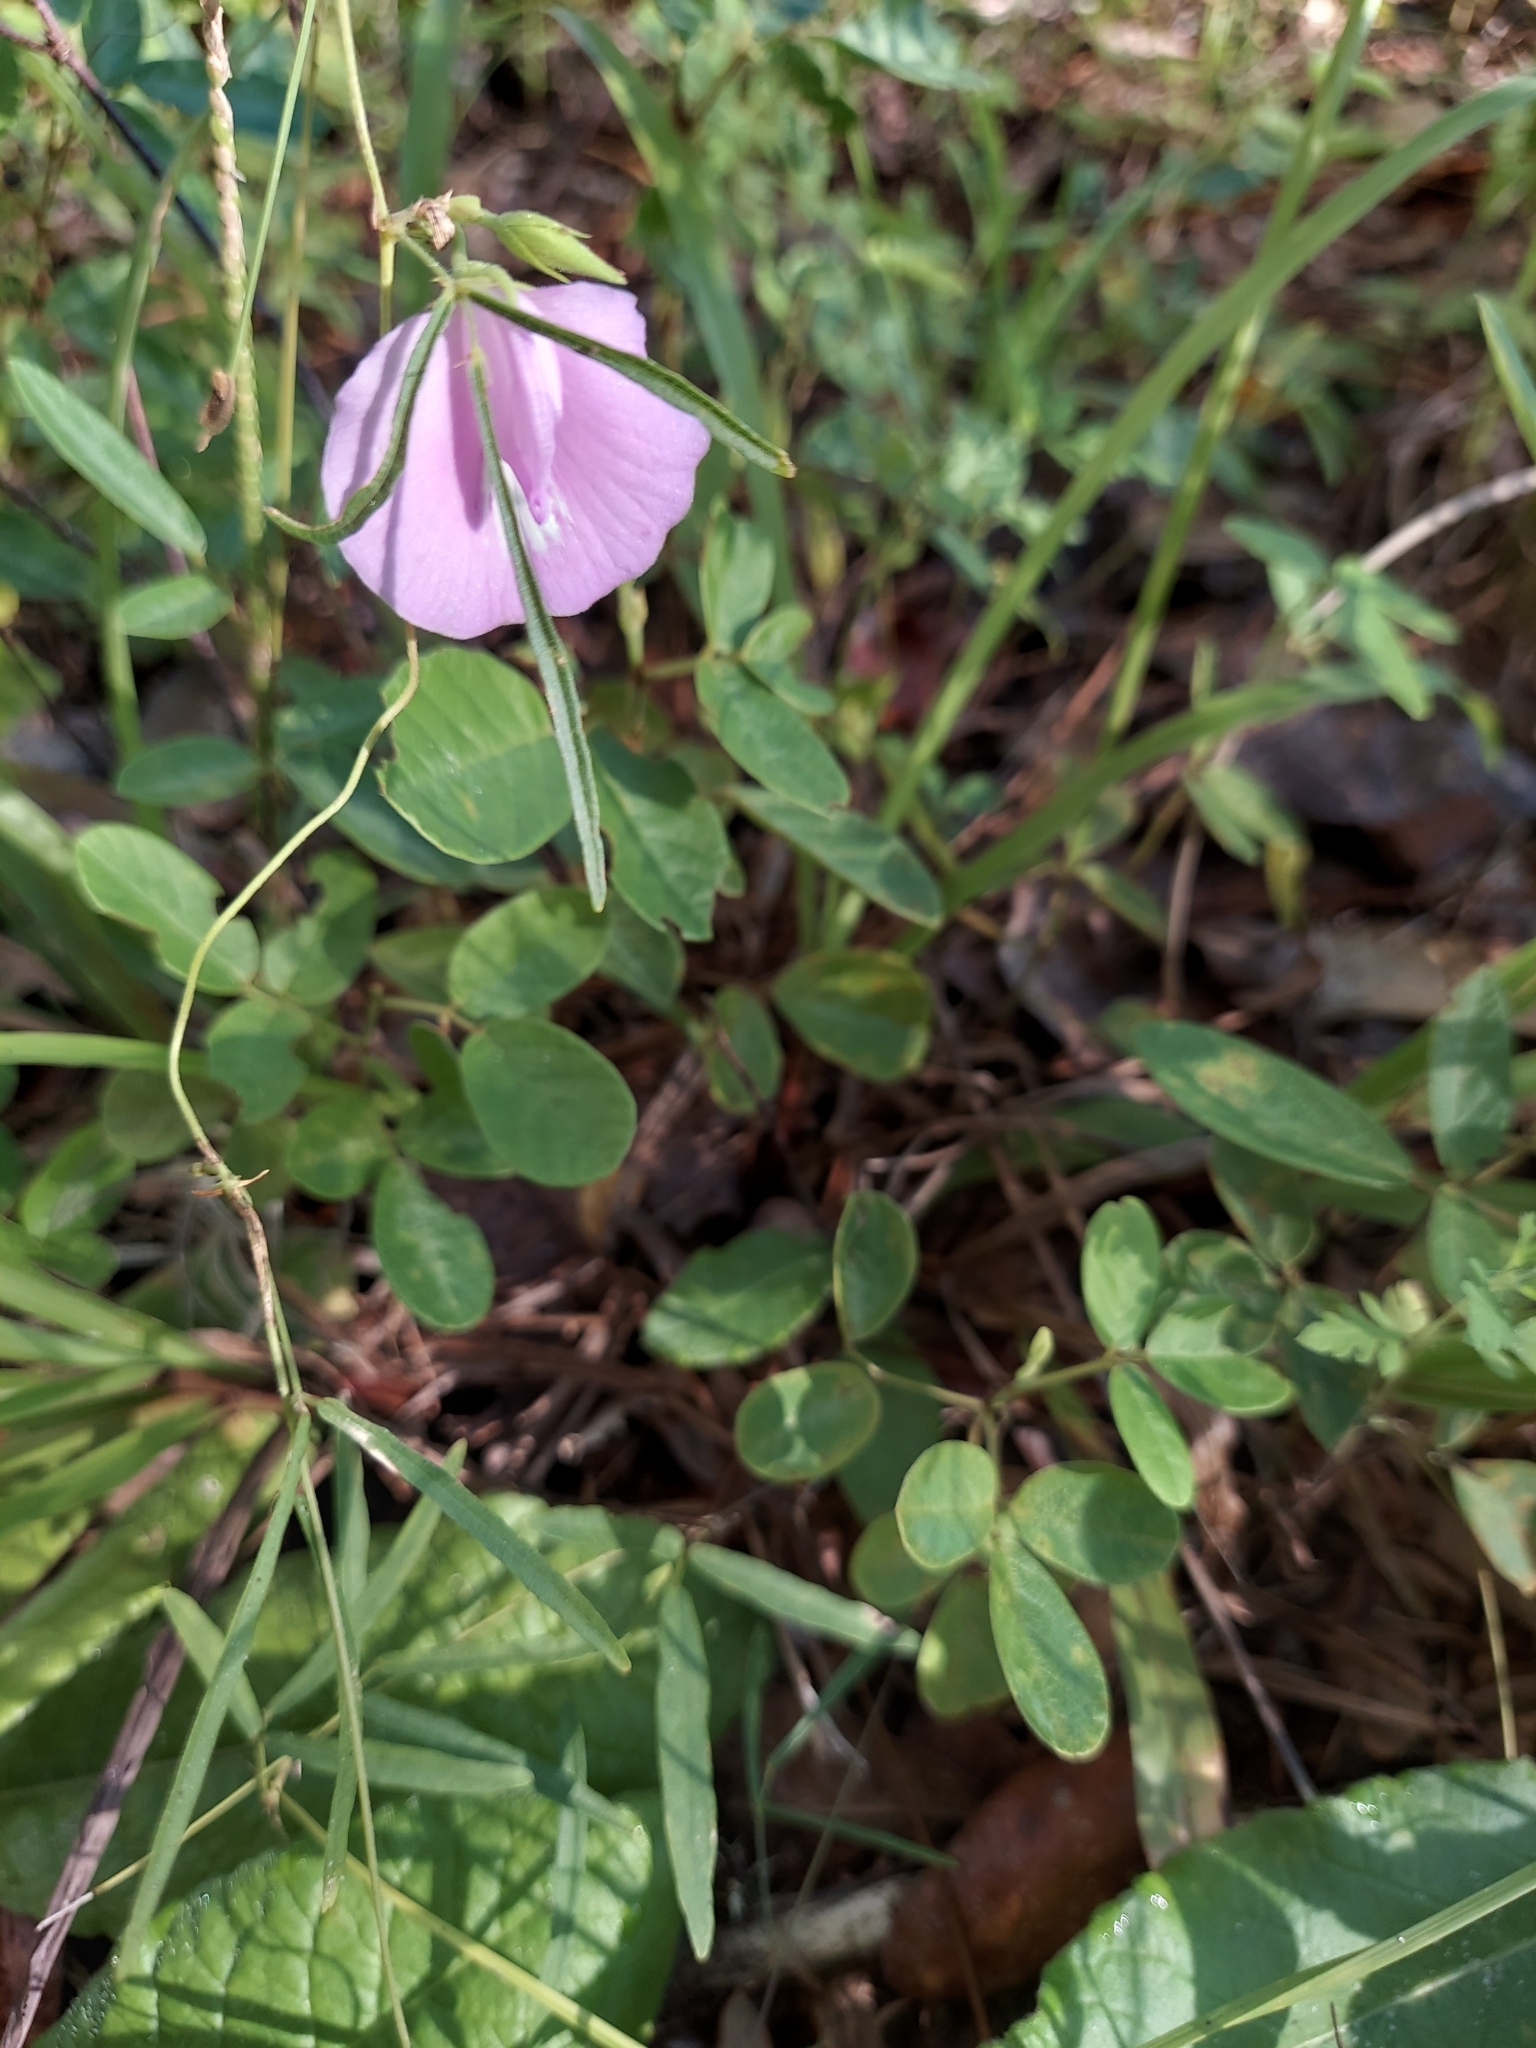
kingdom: Plantae
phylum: Tracheophyta
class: Magnoliopsida
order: Fabales
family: Fabaceae
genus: Centrosema
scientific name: Centrosema virginianum
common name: Butterfly-pea
